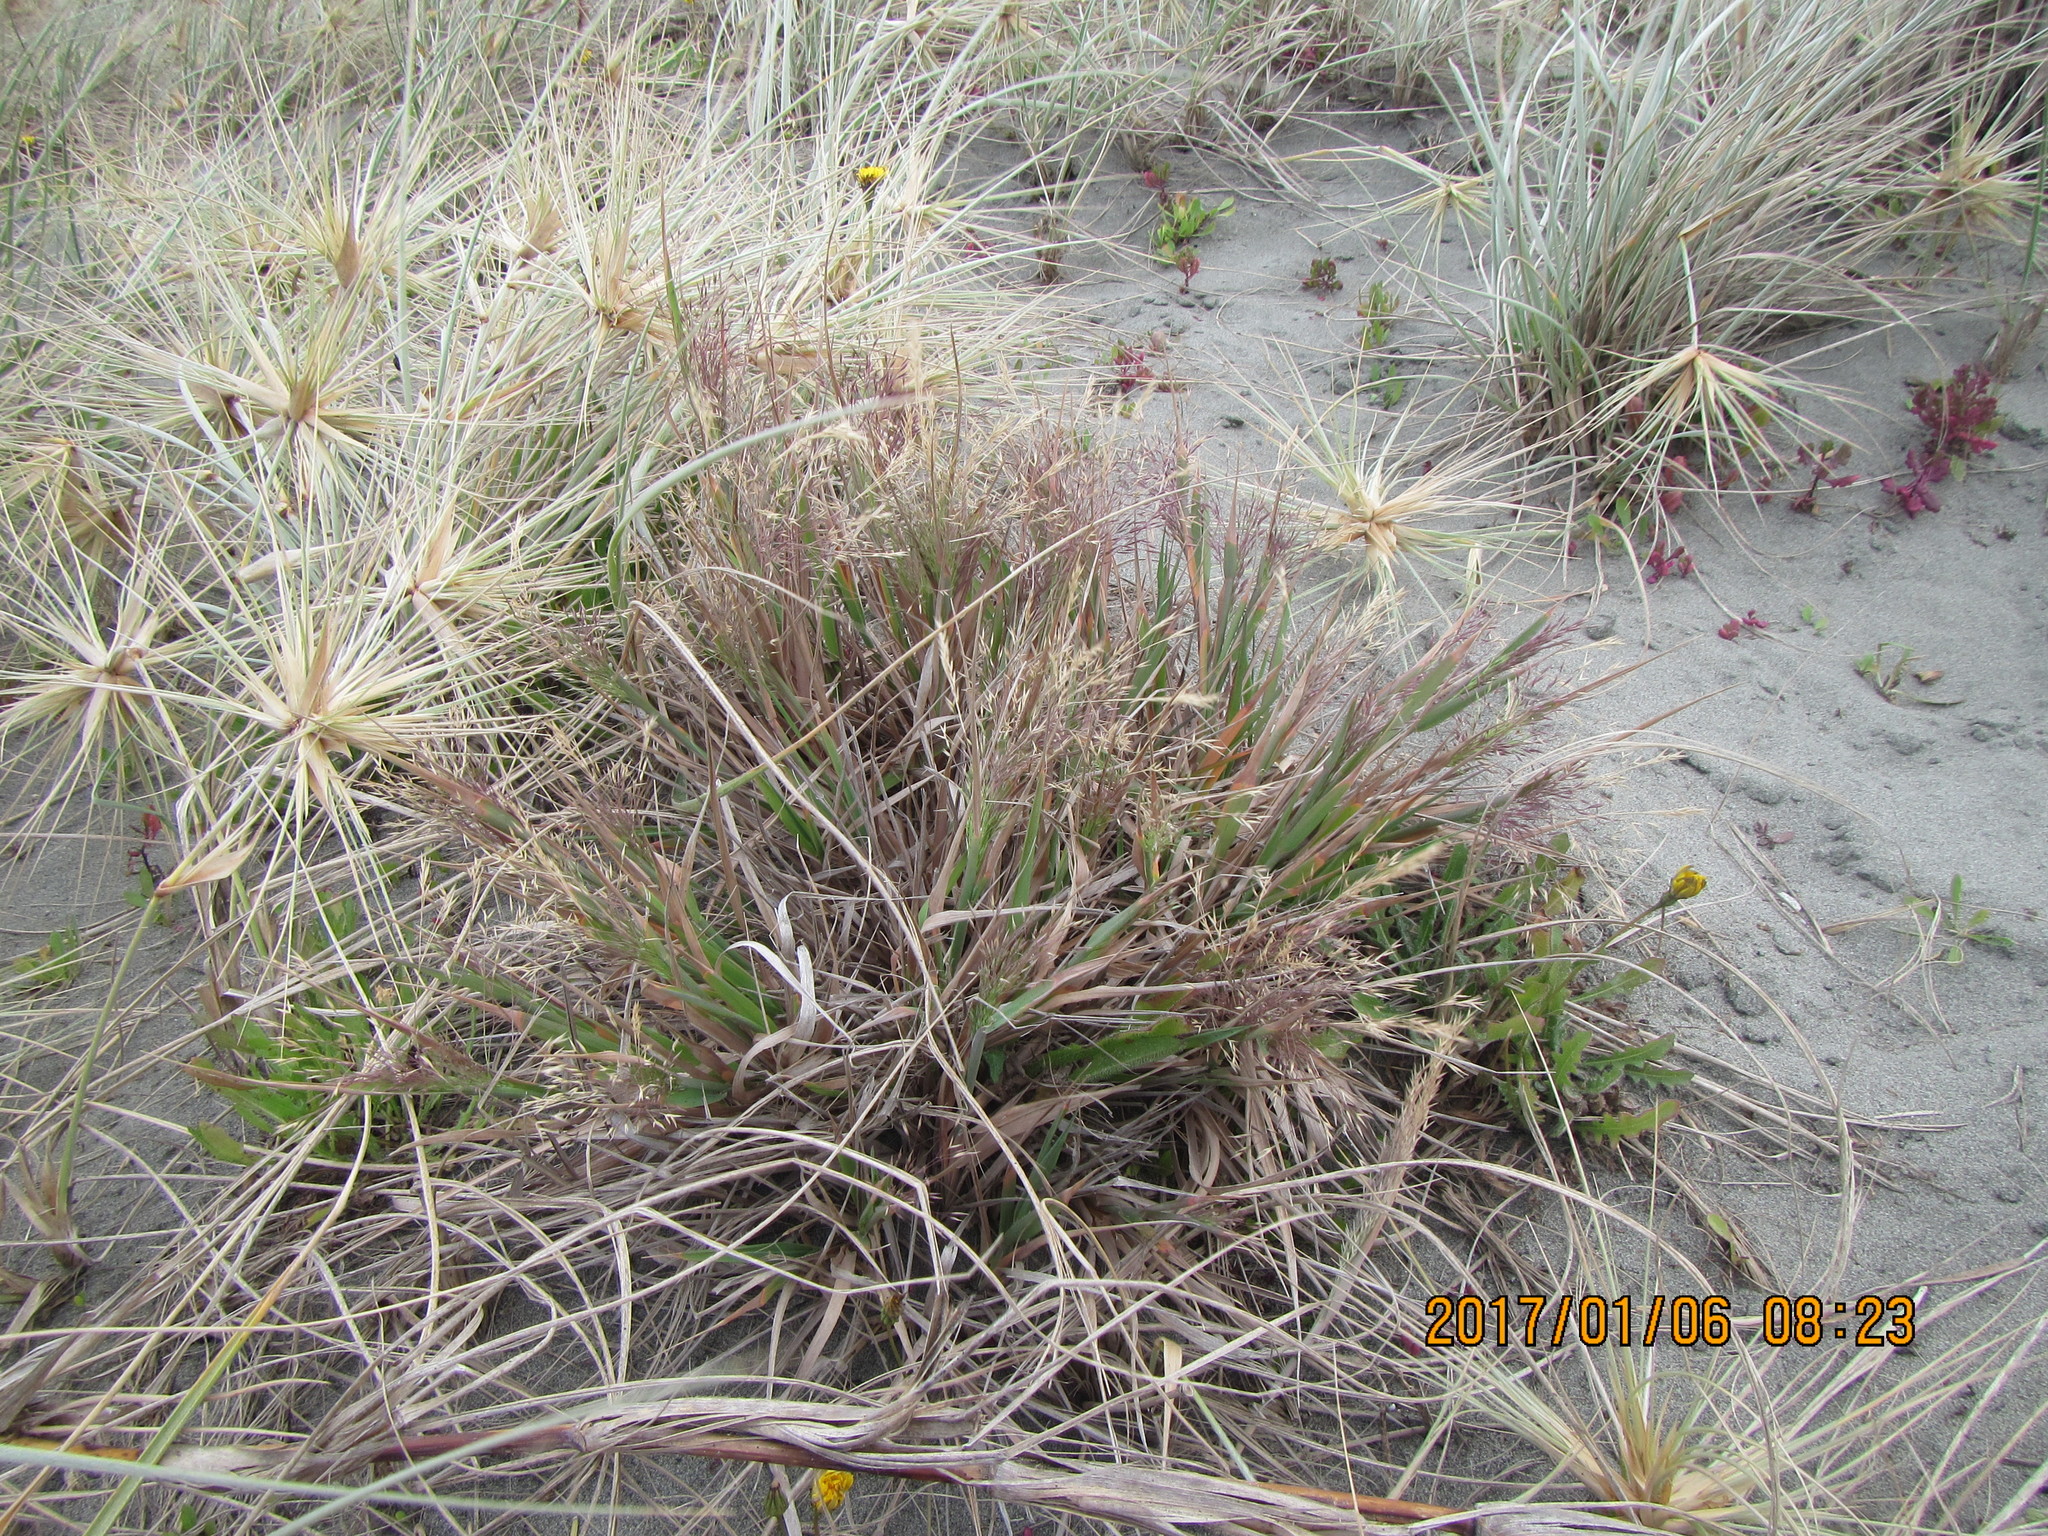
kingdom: Plantae
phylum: Tracheophyta
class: Liliopsida
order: Poales
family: Poaceae
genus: Lachnagrostis
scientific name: Lachnagrostis billardierei
